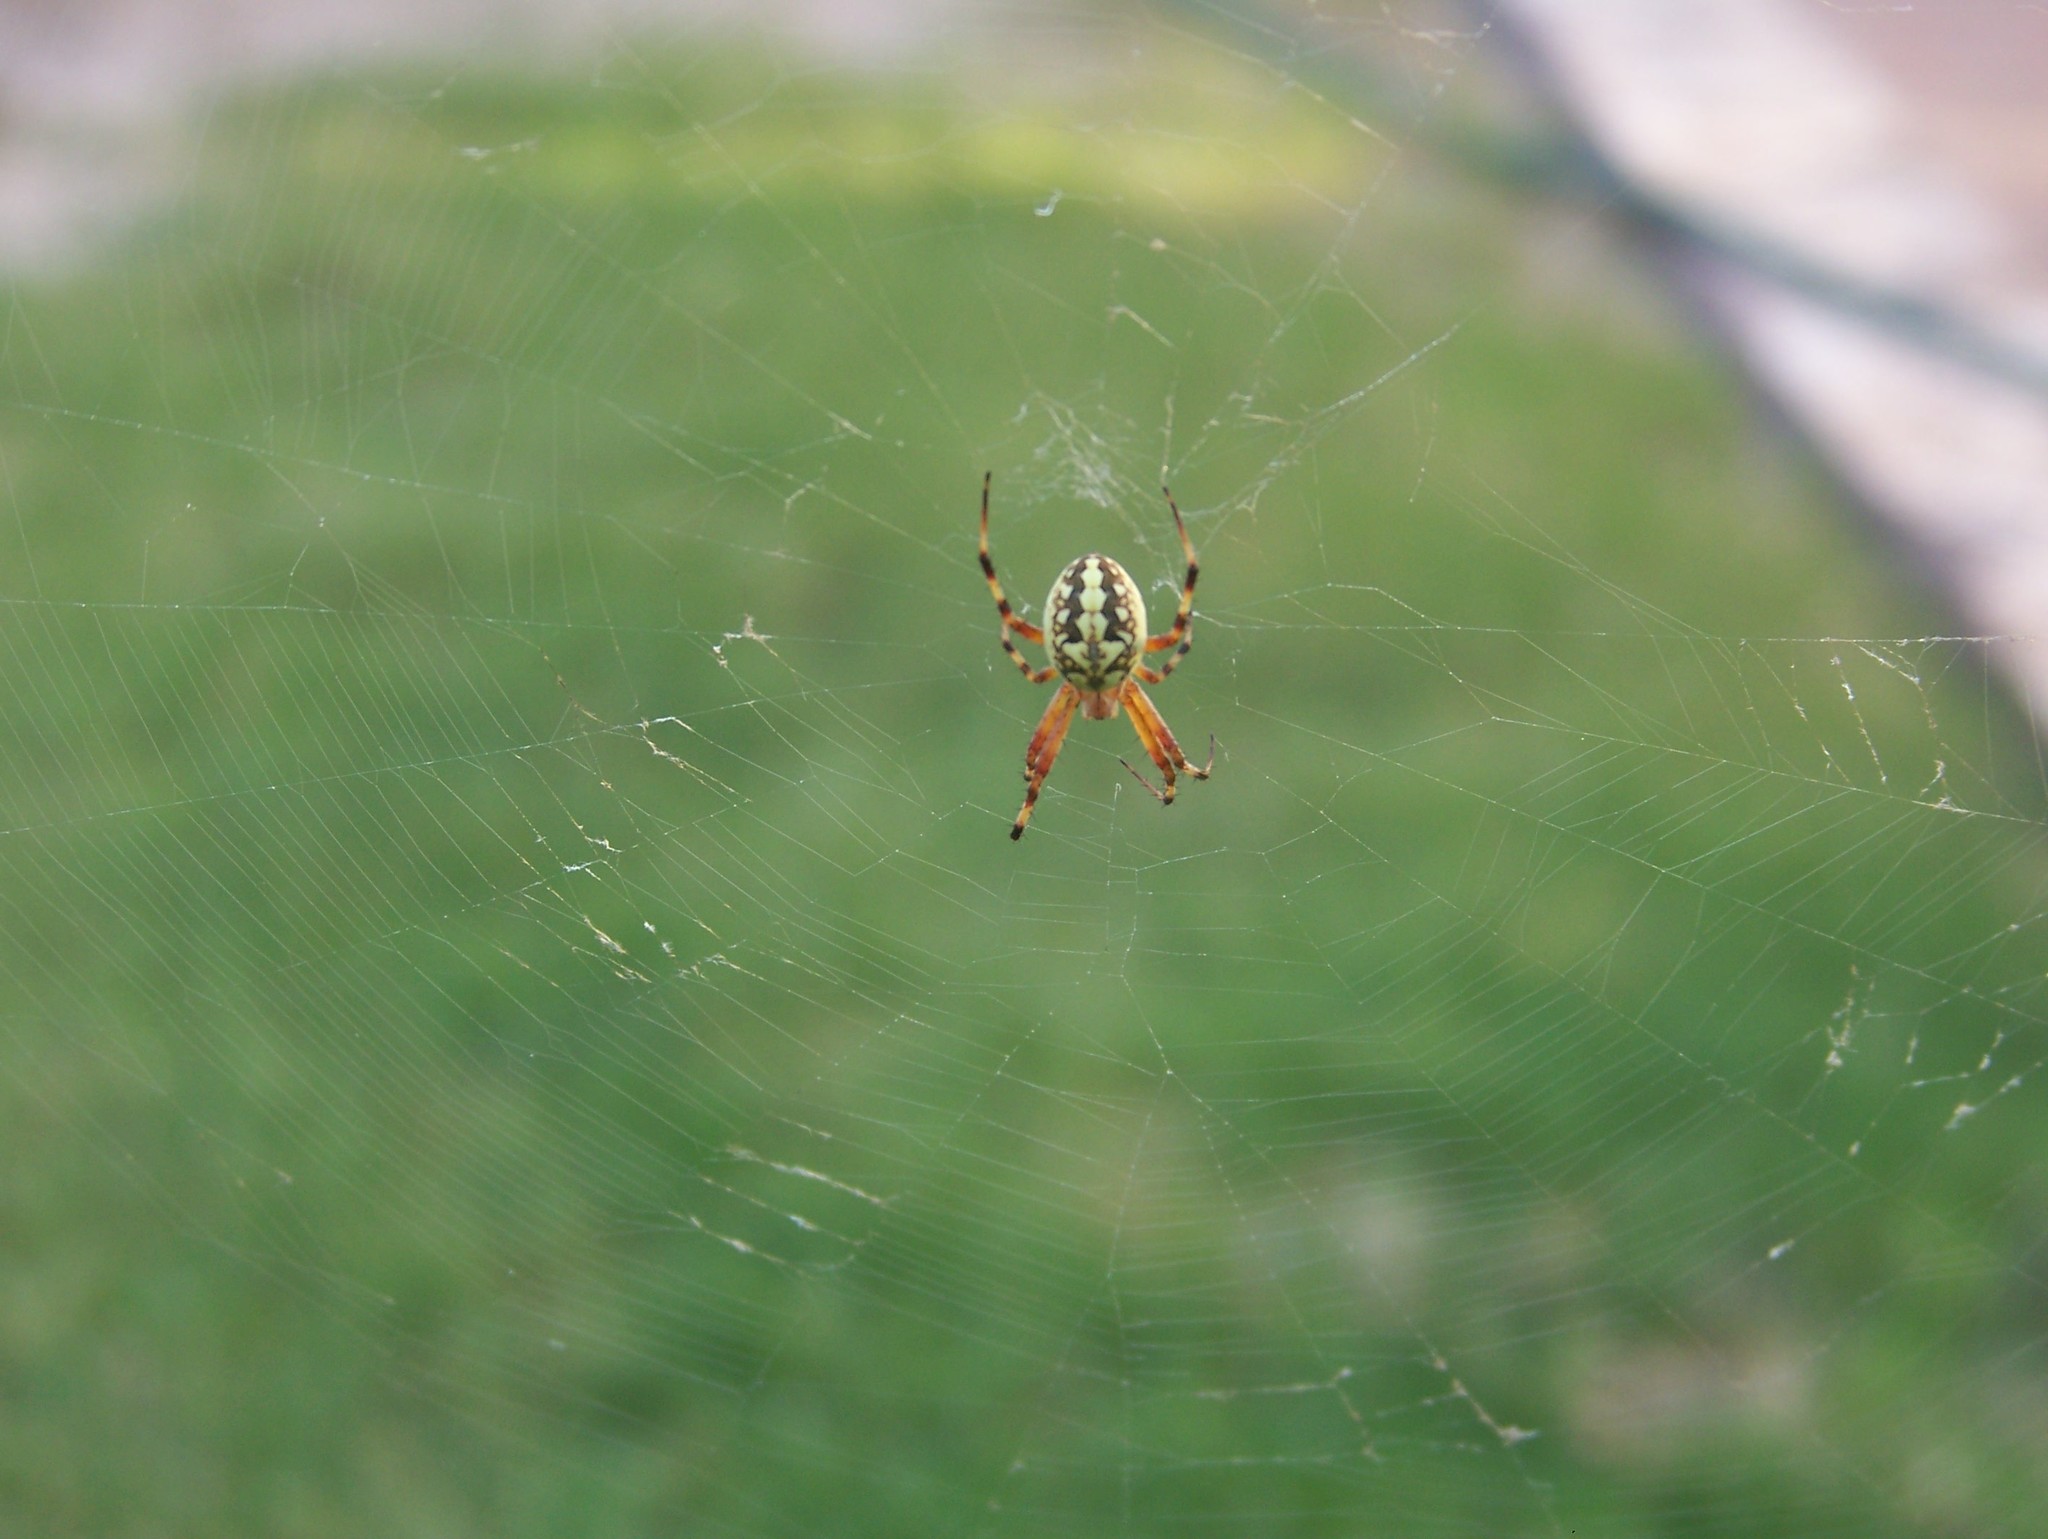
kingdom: Animalia
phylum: Arthropoda
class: Arachnida
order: Araneae
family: Araneidae
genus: Neoscona
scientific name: Neoscona oaxacensis
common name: Orb weavers
